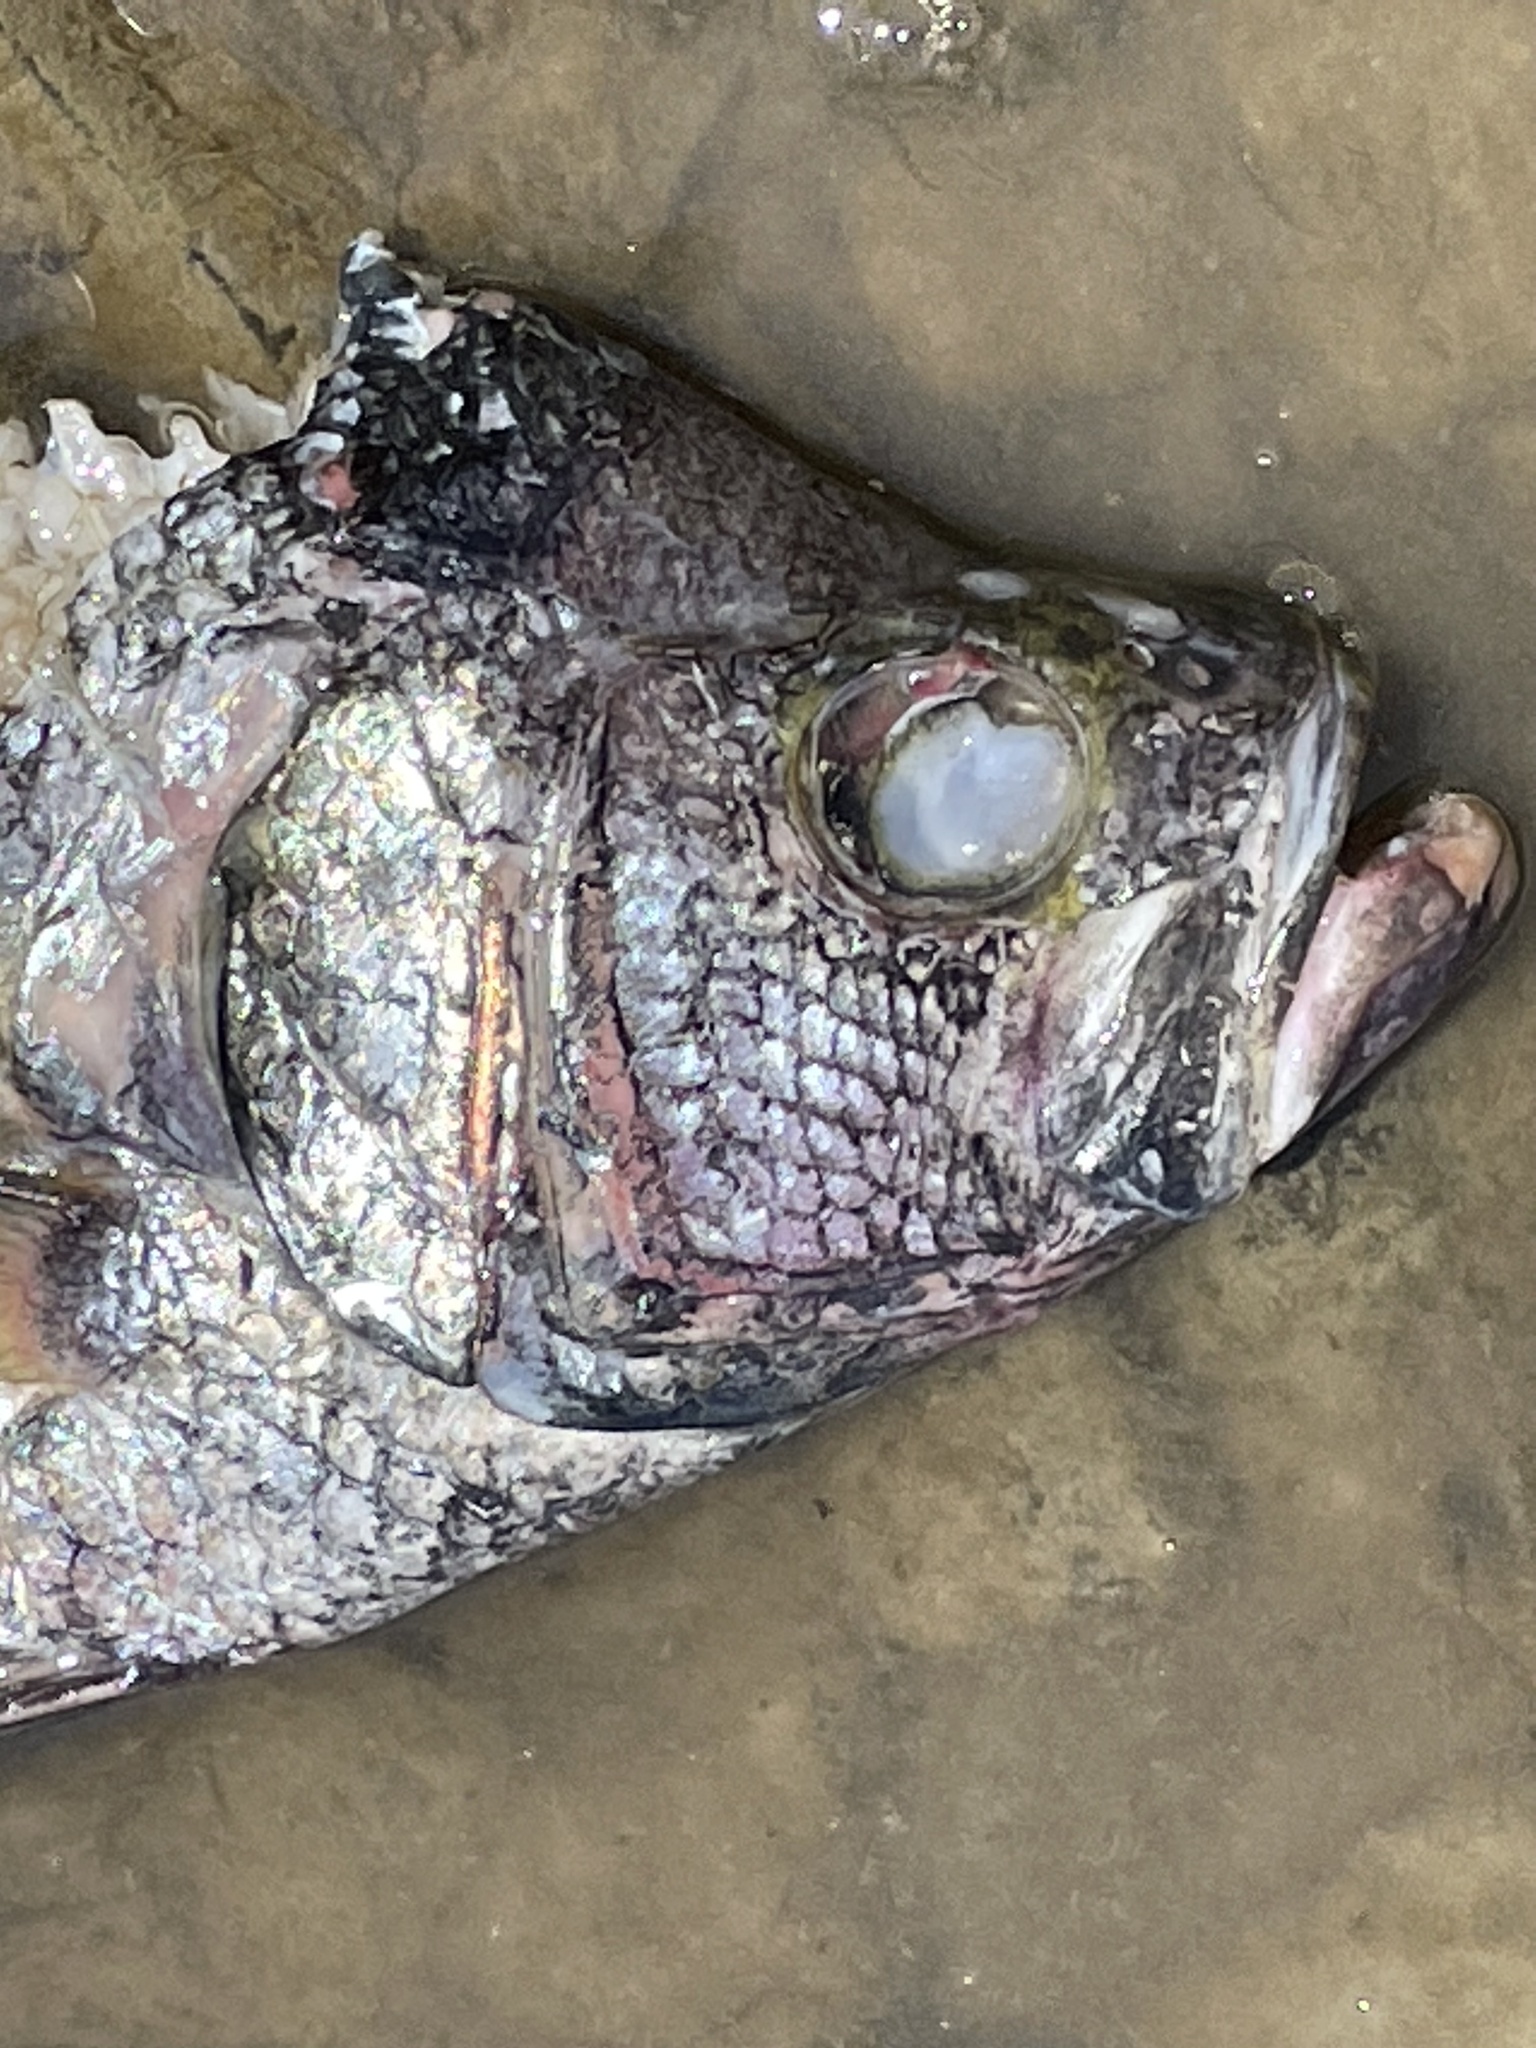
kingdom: Animalia
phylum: Chordata
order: Perciformes
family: Centrarchidae
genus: Pomoxis
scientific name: Pomoxis nigromaculatus
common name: Black crappie
